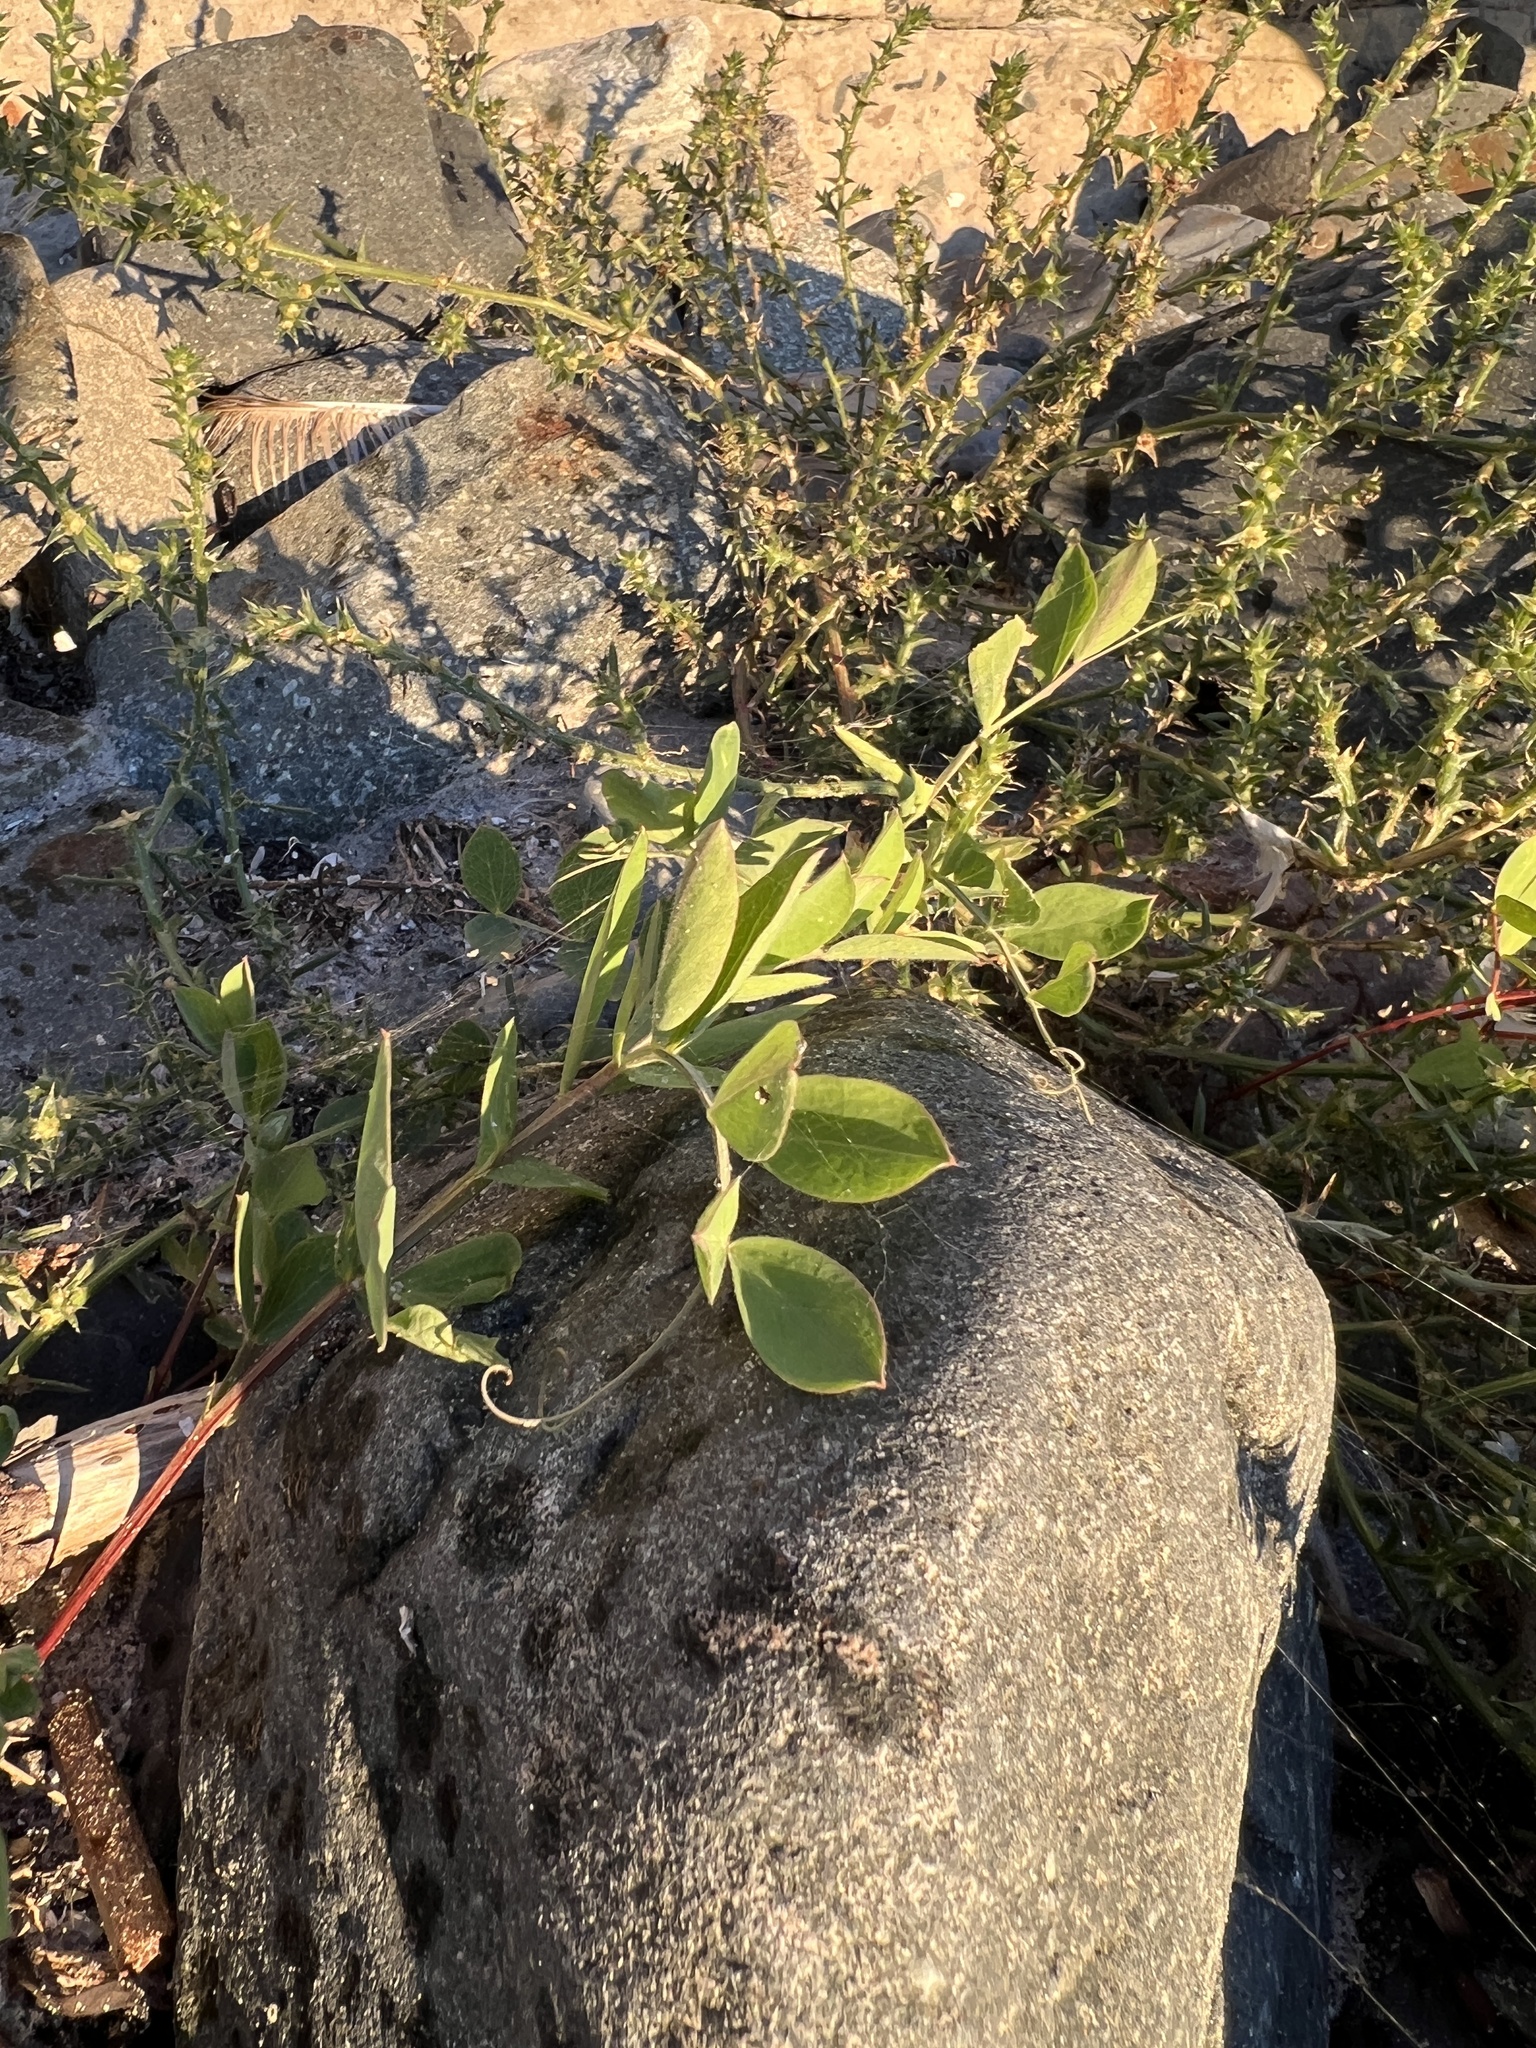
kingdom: Plantae
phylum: Tracheophyta
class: Magnoliopsida
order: Fabales
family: Fabaceae
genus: Lathyrus
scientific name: Lathyrus japonicus
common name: Sea pea
